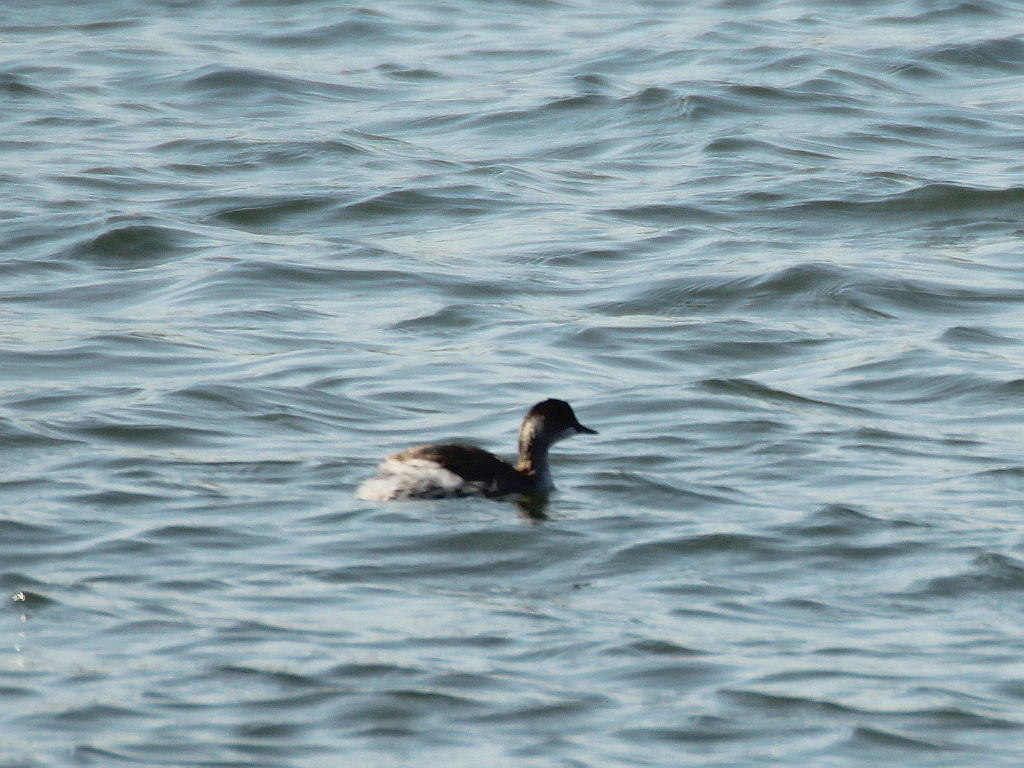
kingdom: Animalia
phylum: Chordata
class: Aves
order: Podicipediformes
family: Podicipedidae
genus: Podiceps
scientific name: Podiceps nigricollis
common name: Black-necked grebe
